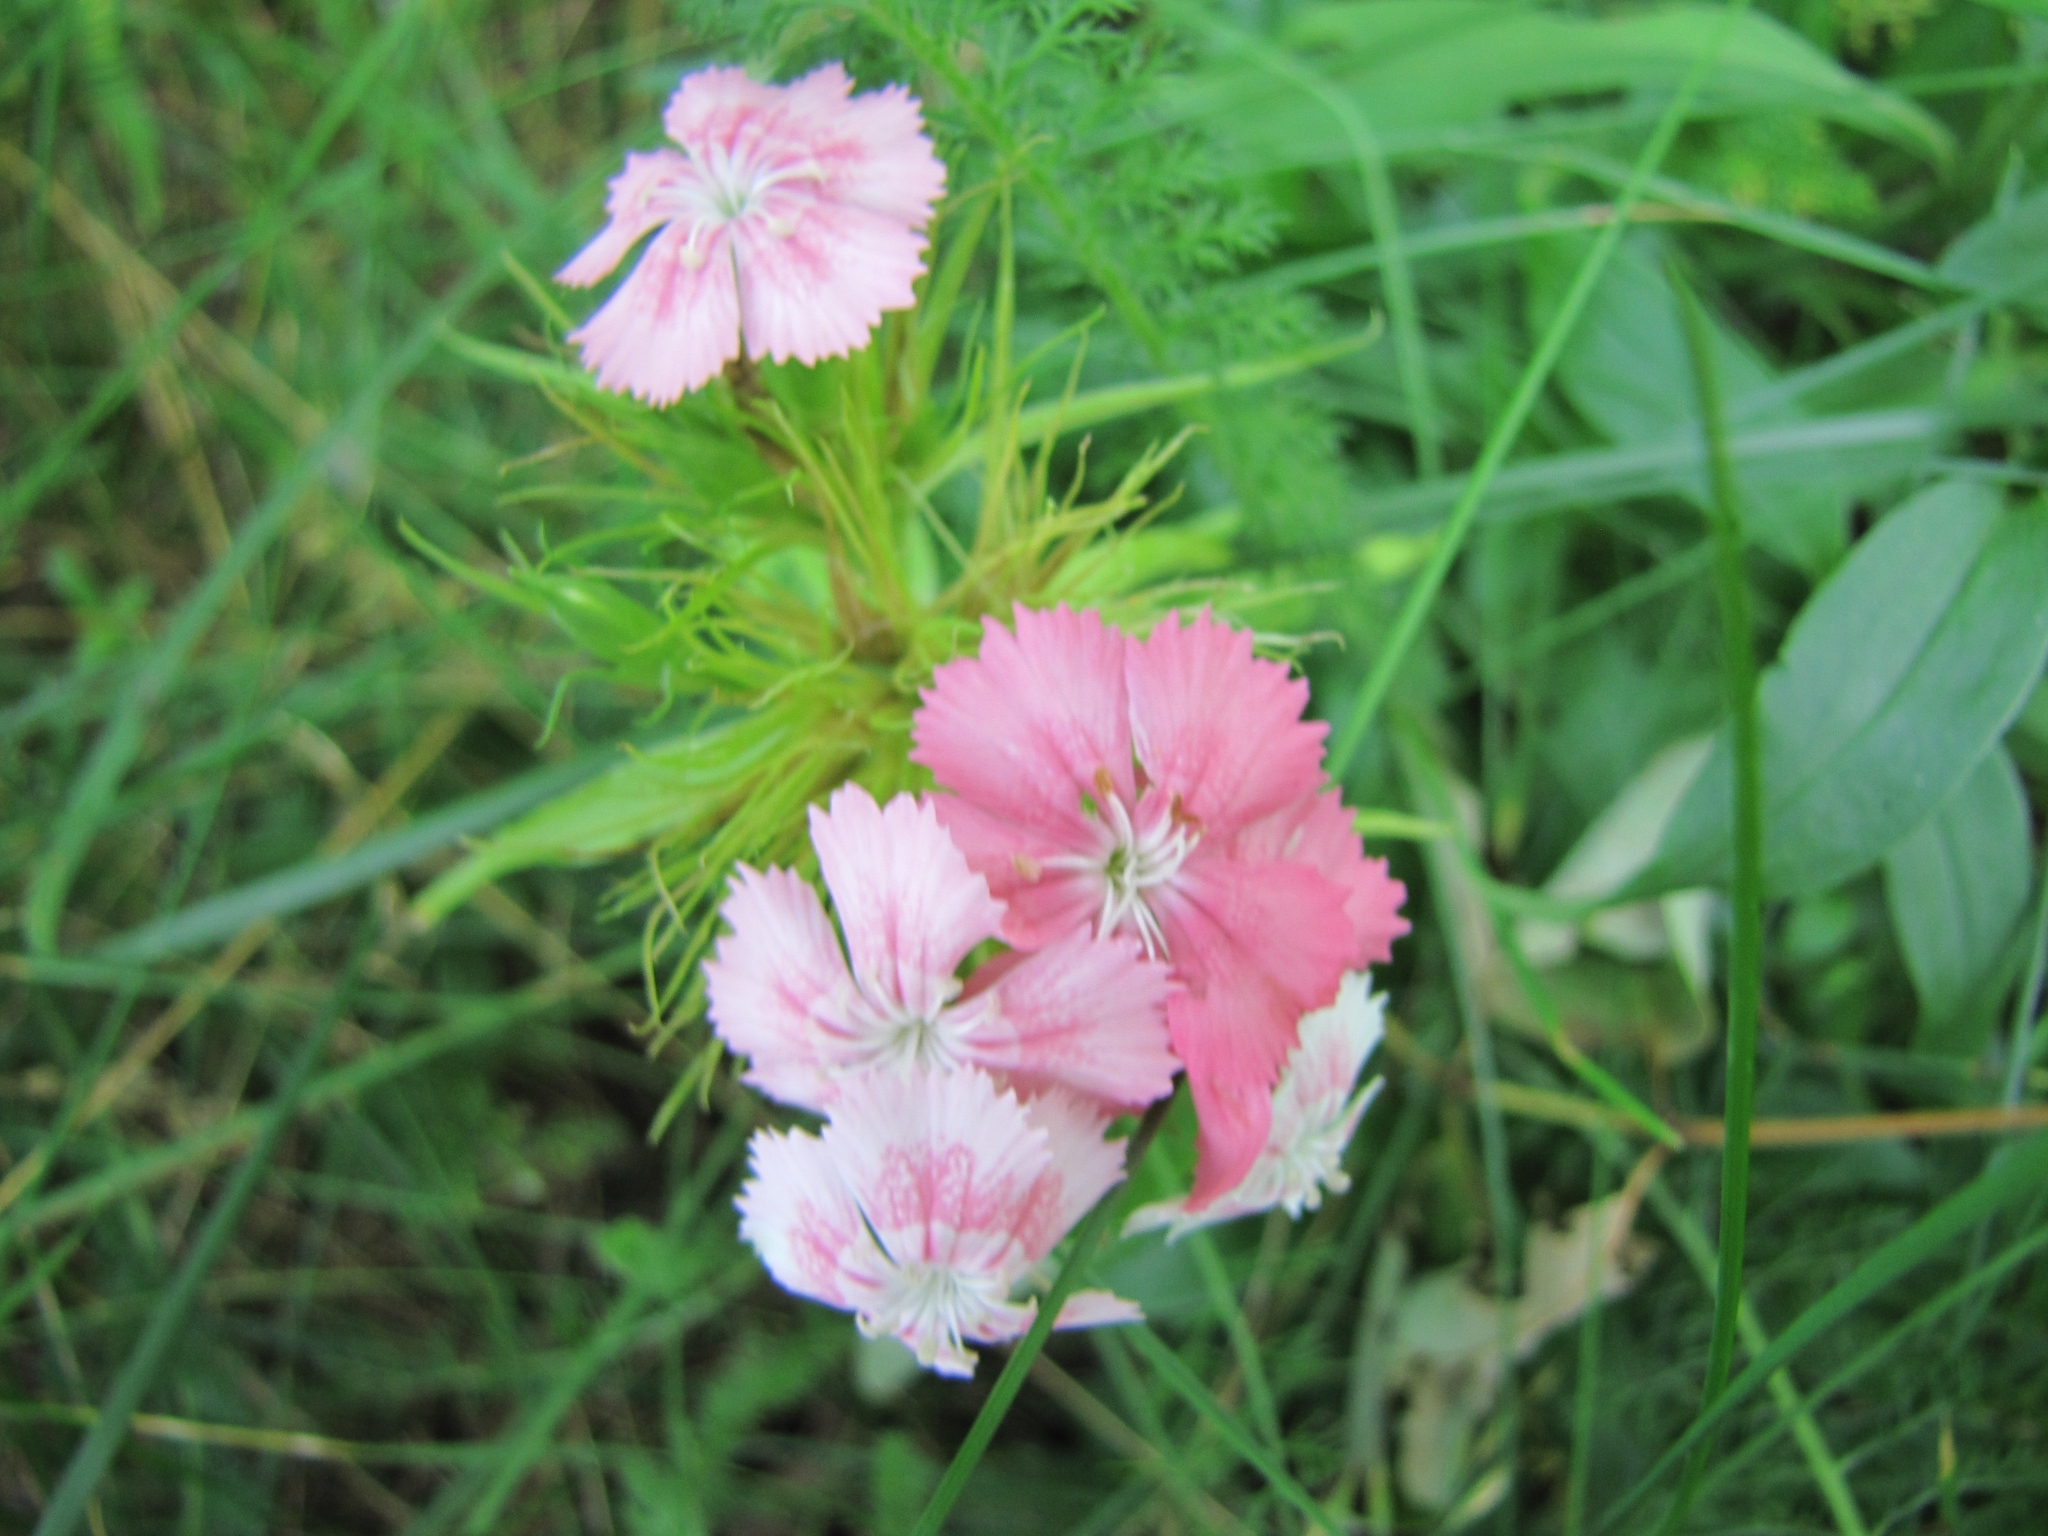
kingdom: Plantae
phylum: Tracheophyta
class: Magnoliopsida
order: Caryophyllales
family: Caryophyllaceae
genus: Dianthus
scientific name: Dianthus barbatus
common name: Sweet-william
